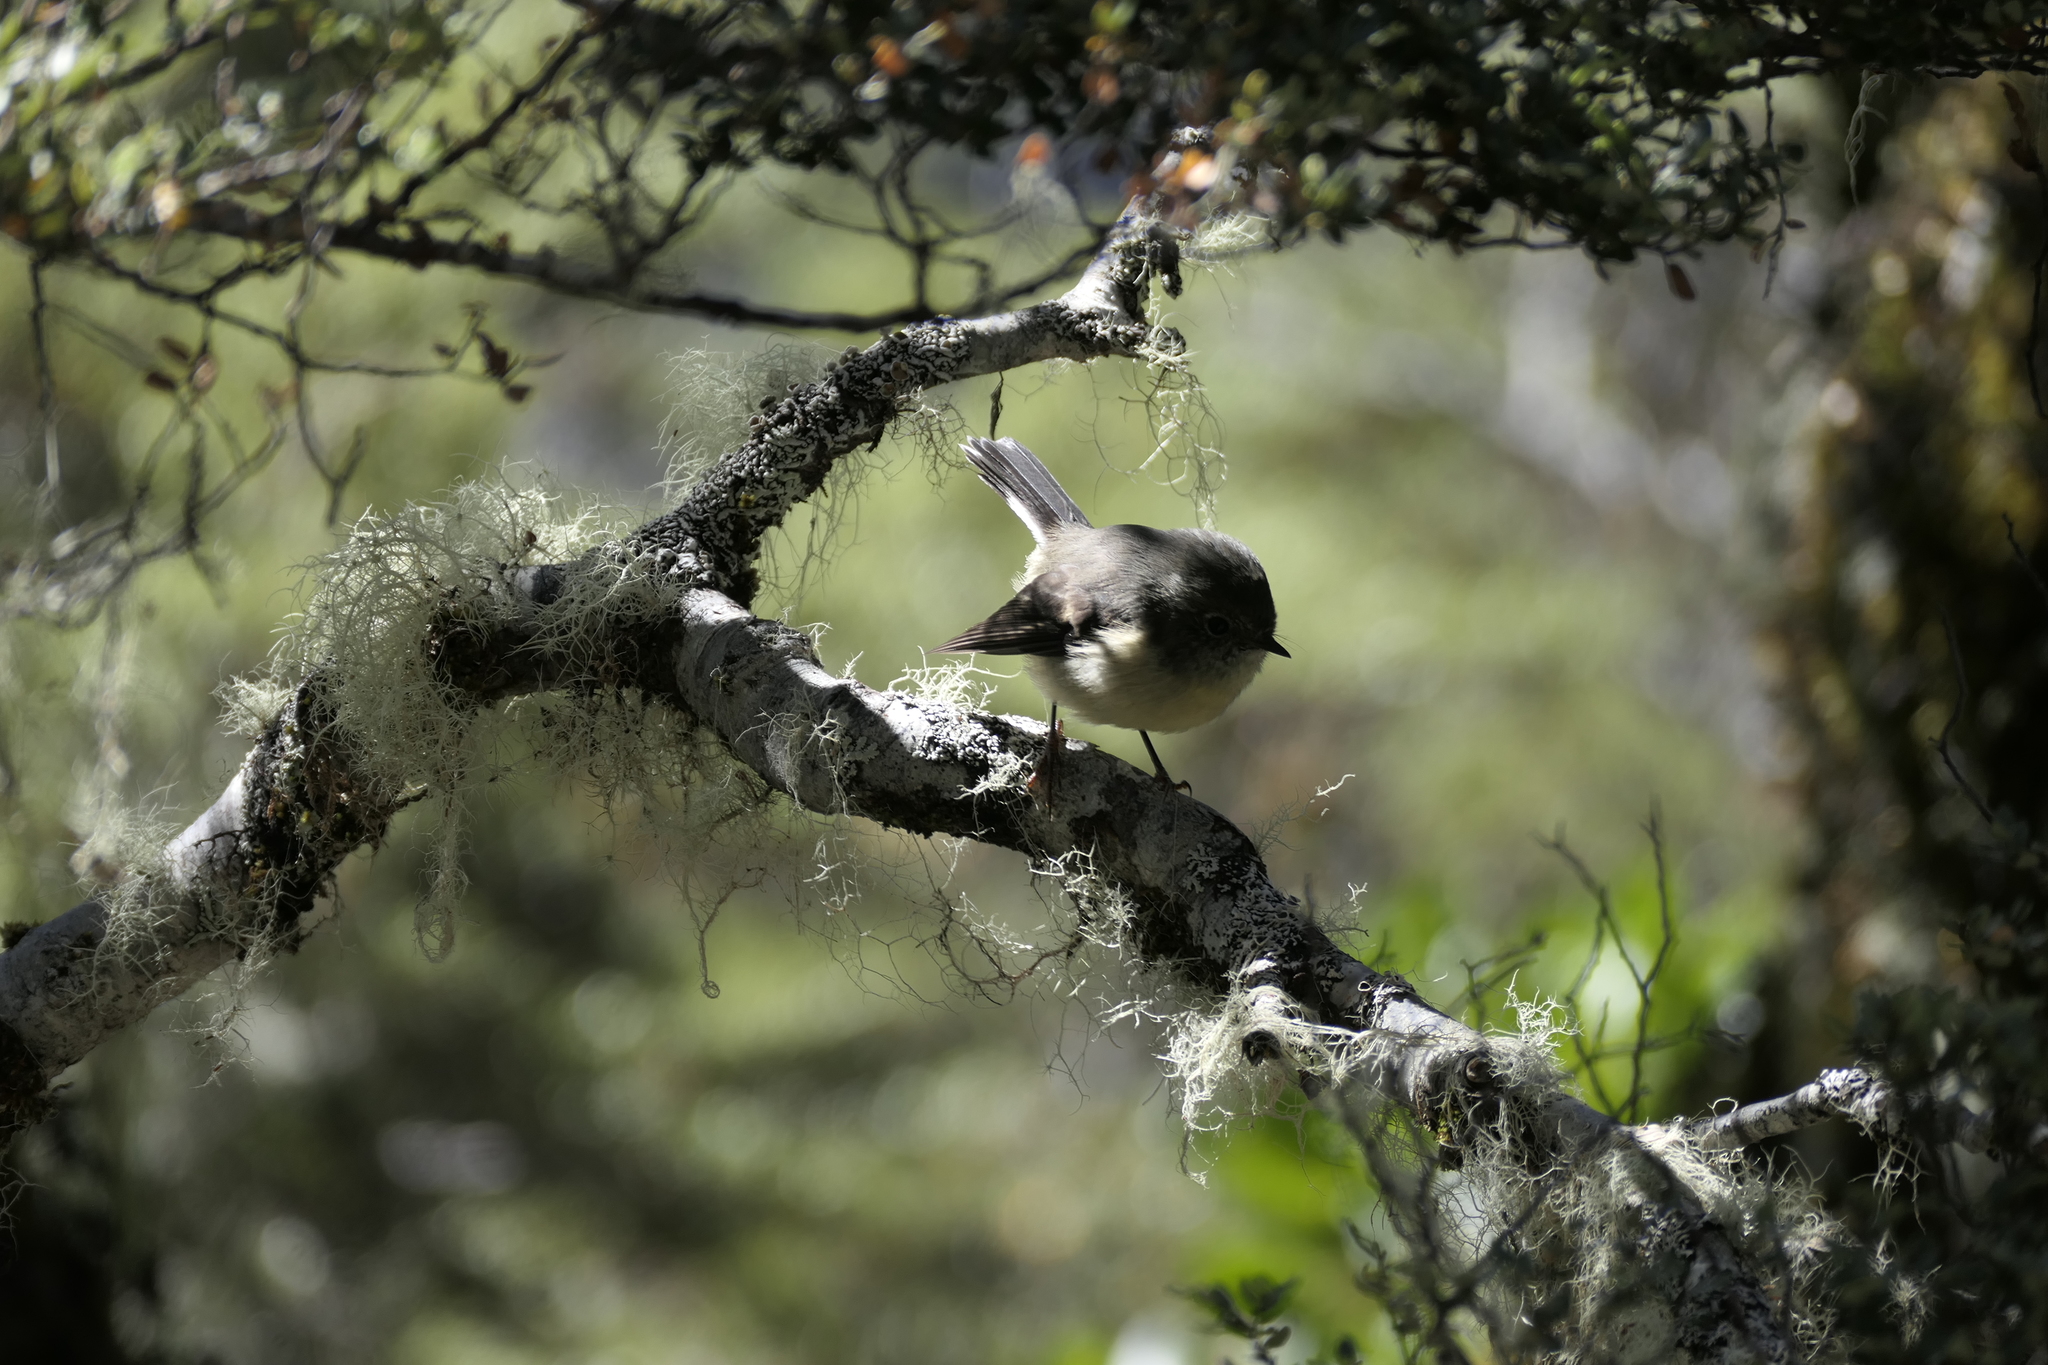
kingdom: Animalia
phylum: Chordata
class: Aves
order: Passeriformes
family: Petroicidae
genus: Petroica
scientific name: Petroica macrocephala
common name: Tomtit
